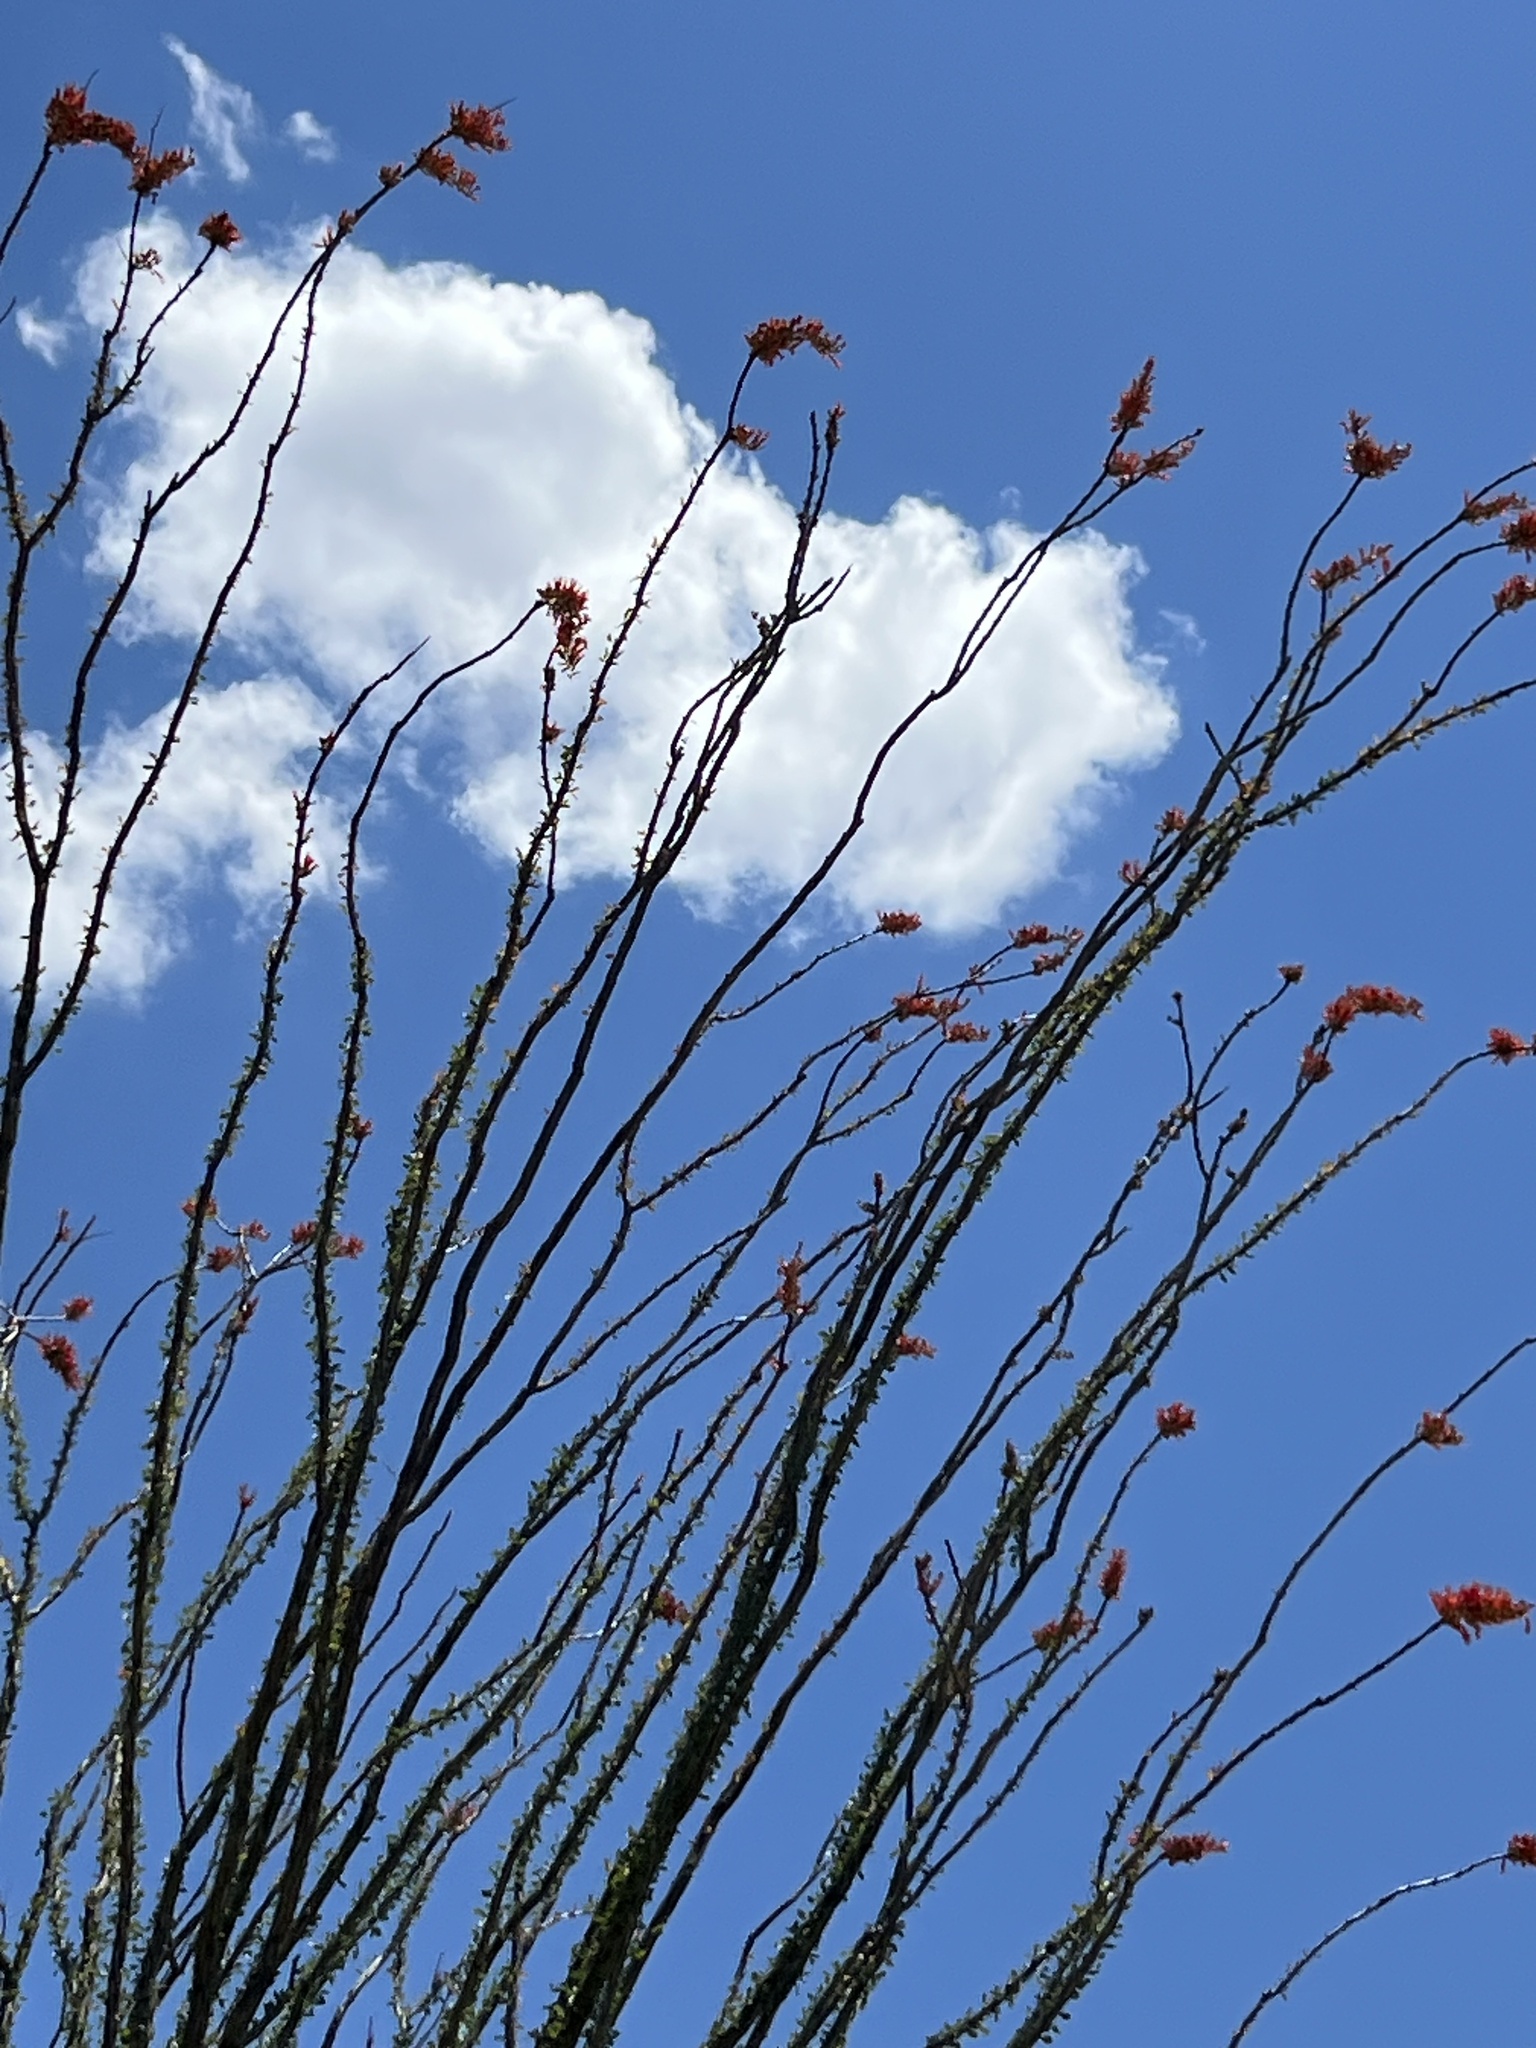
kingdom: Plantae
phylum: Tracheophyta
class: Magnoliopsida
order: Ericales
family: Fouquieriaceae
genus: Fouquieria
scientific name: Fouquieria splendens
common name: Vine-cactus
